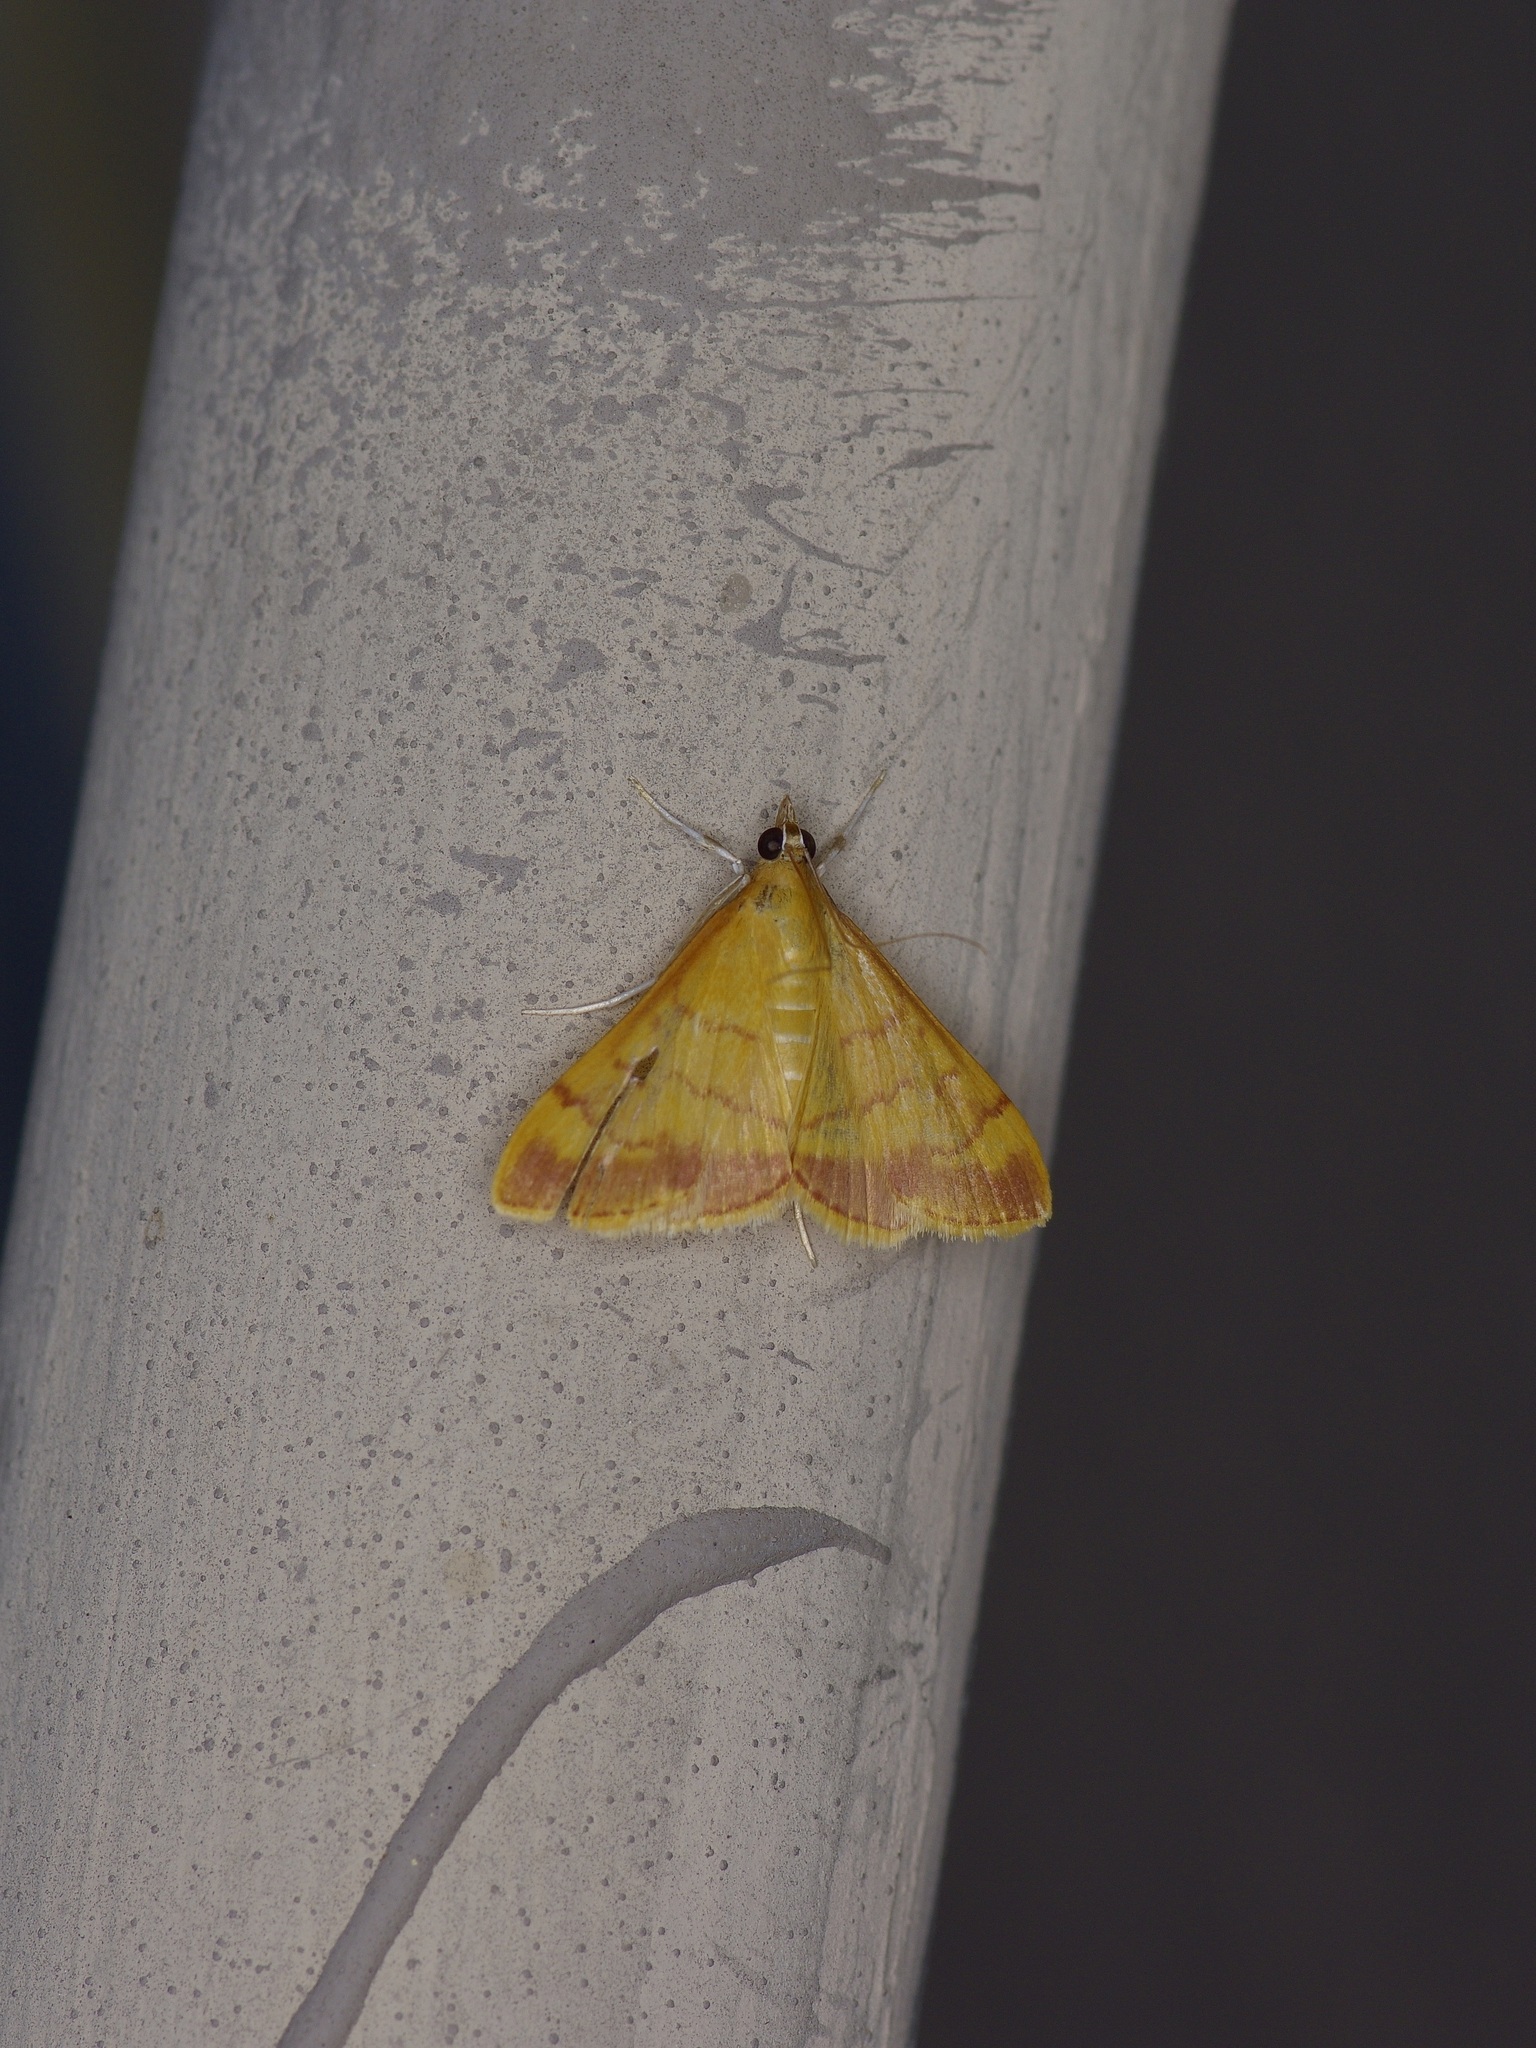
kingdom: Animalia
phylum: Arthropoda
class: Insecta
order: Lepidoptera
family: Crambidae
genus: Pyrausta
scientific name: Pyrausta pseudonythesalis
